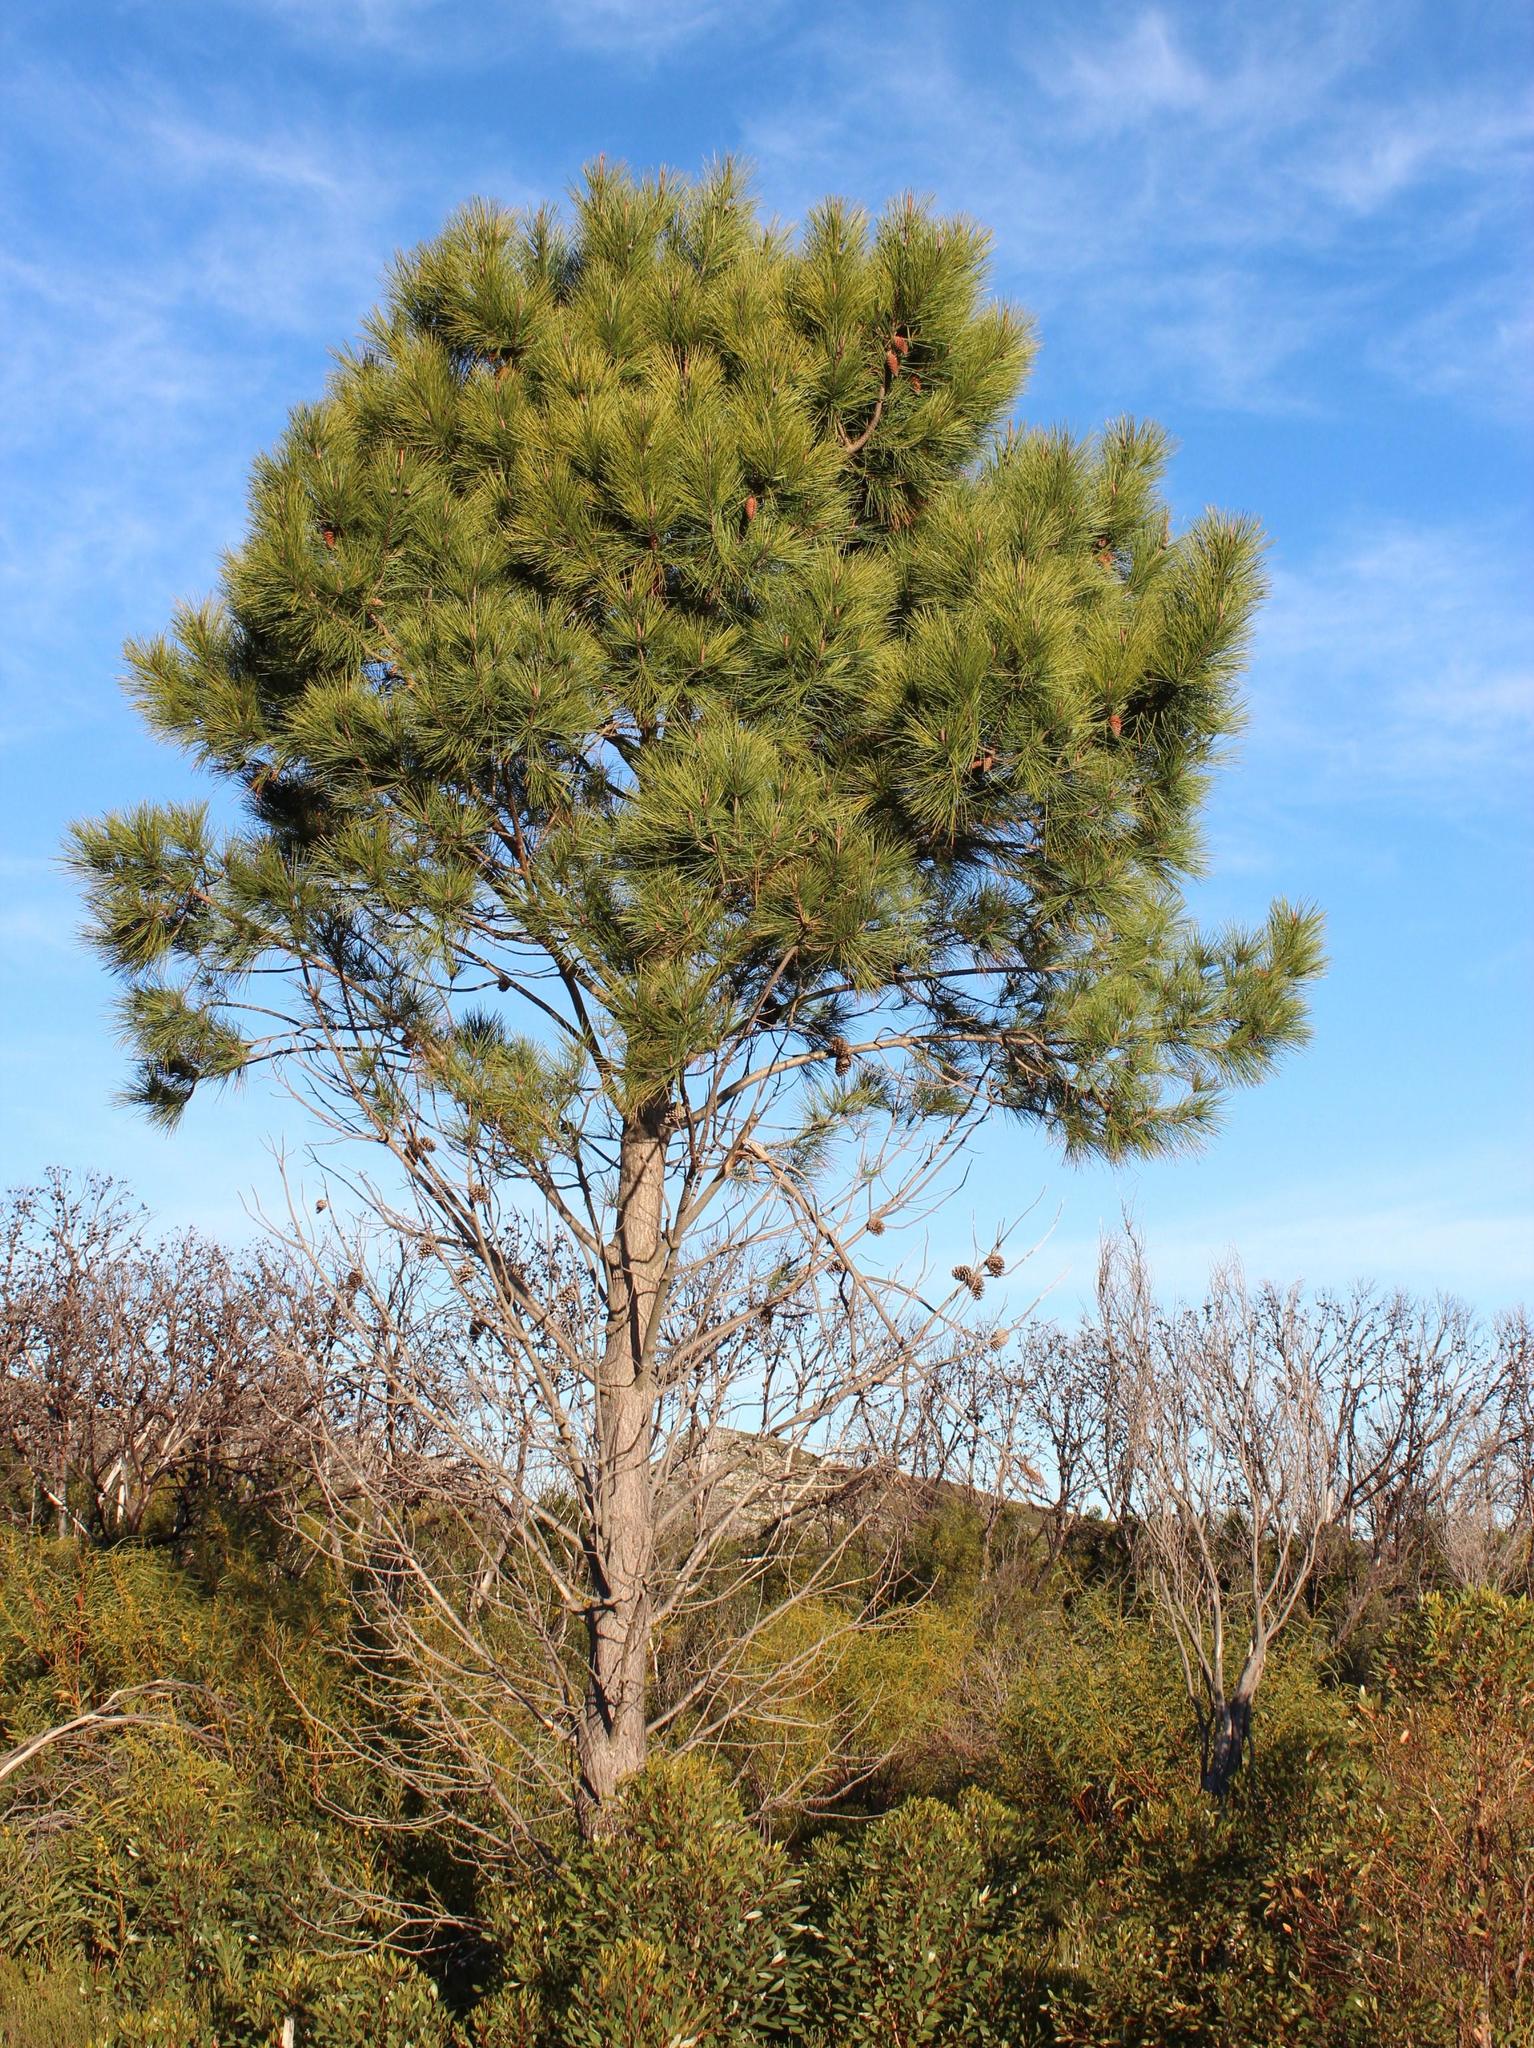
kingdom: Plantae
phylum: Tracheophyta
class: Pinopsida
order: Pinales
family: Pinaceae
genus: Pinus
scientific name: Pinus pinaster
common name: Maritime pine
